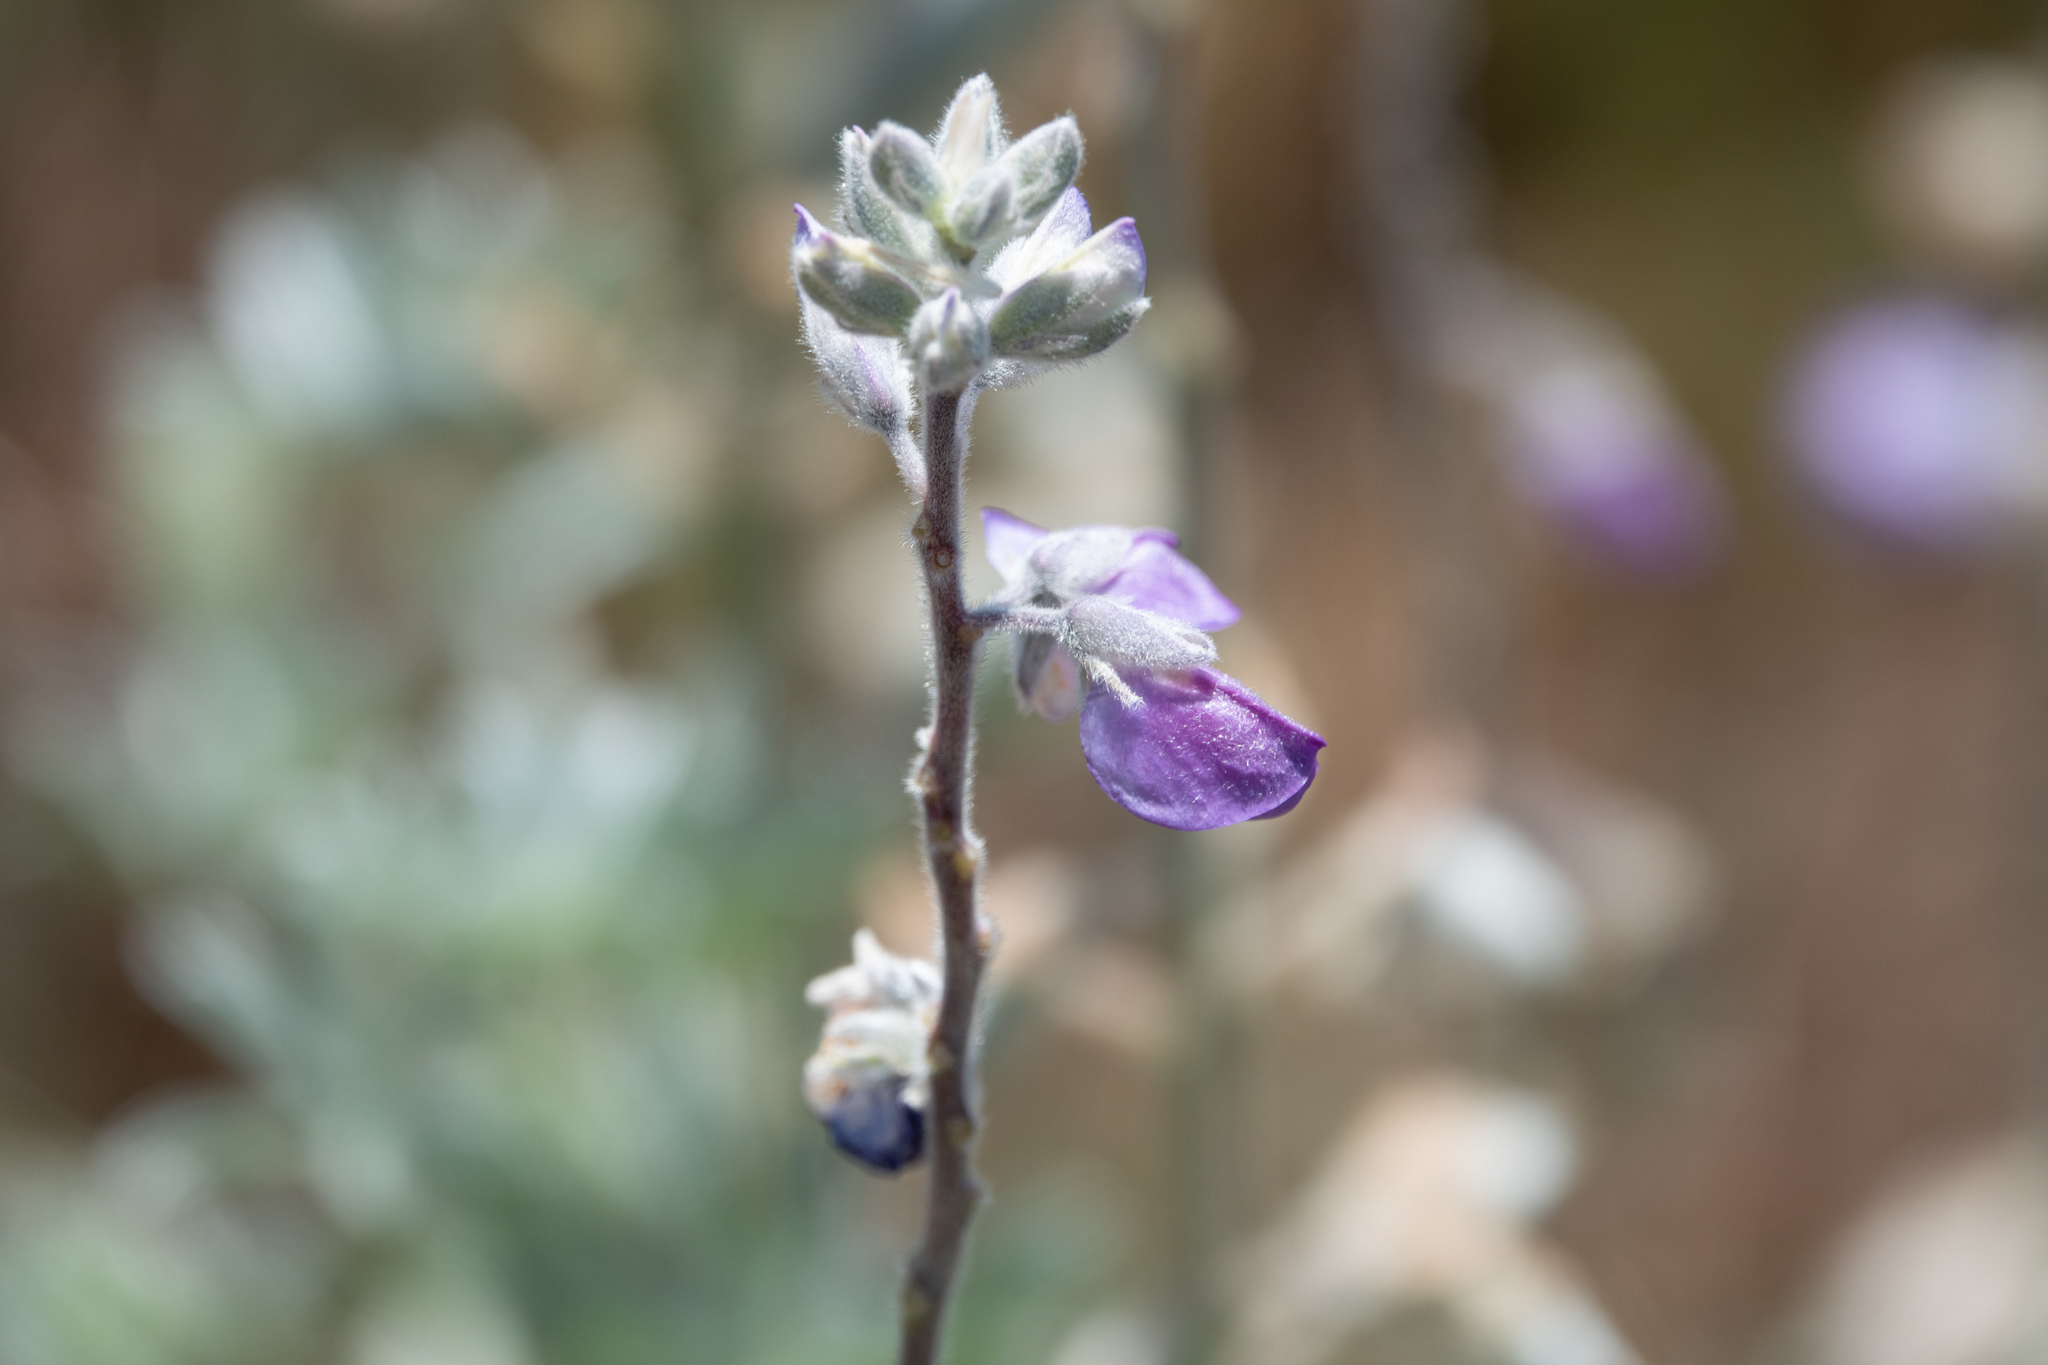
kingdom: Plantae
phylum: Tracheophyta
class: Magnoliopsida
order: Fabales
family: Fabaceae
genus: Lupinus
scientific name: Lupinus chamissonis
